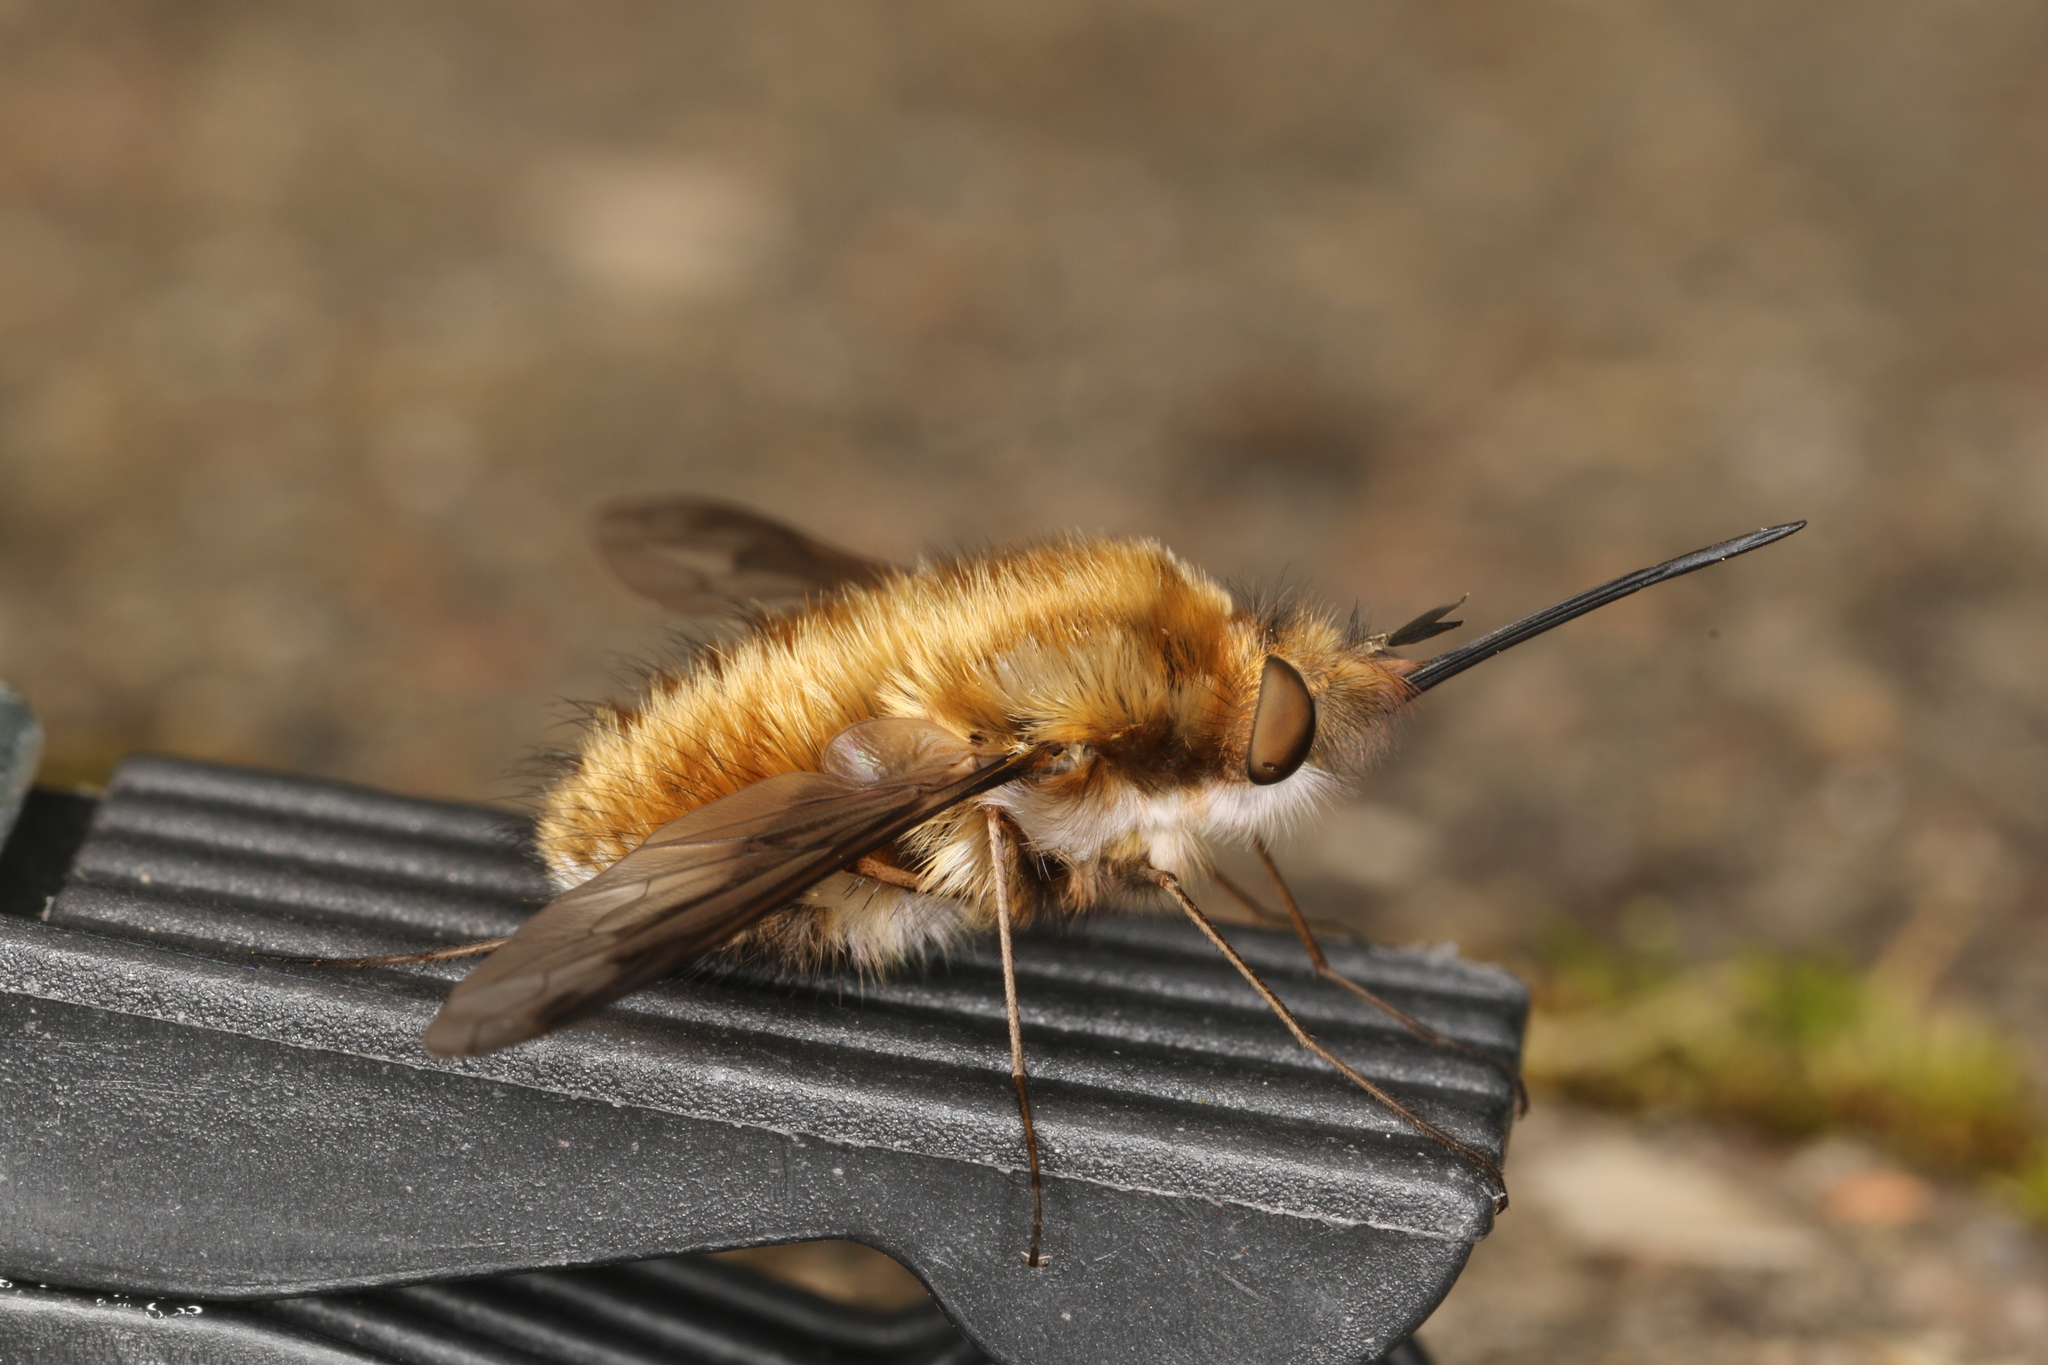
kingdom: Animalia
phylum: Arthropoda
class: Insecta
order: Diptera
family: Bombyliidae
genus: Bombylius
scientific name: Bombylius major
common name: Bee fly
